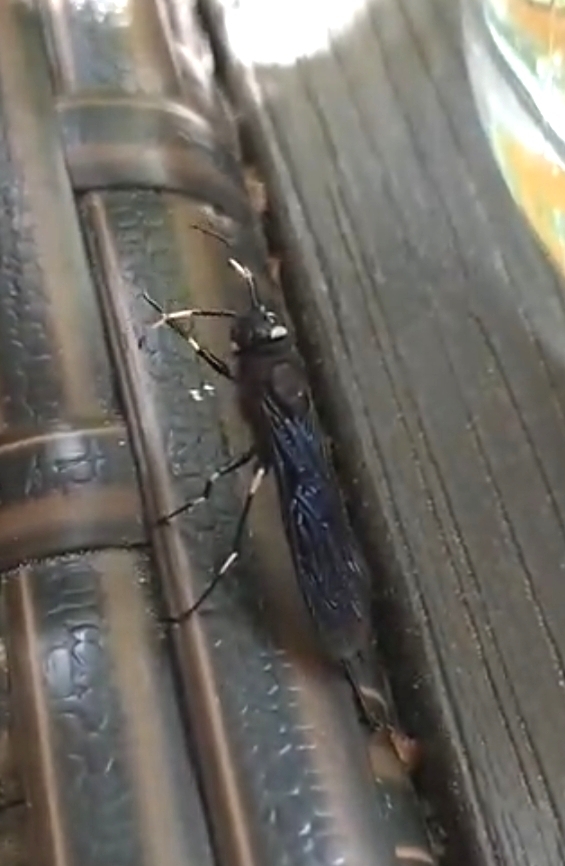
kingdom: Animalia
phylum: Arthropoda
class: Insecta
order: Hymenoptera
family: Siricidae
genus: Urocerus
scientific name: Urocerus albicornis
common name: White-horned horntail
